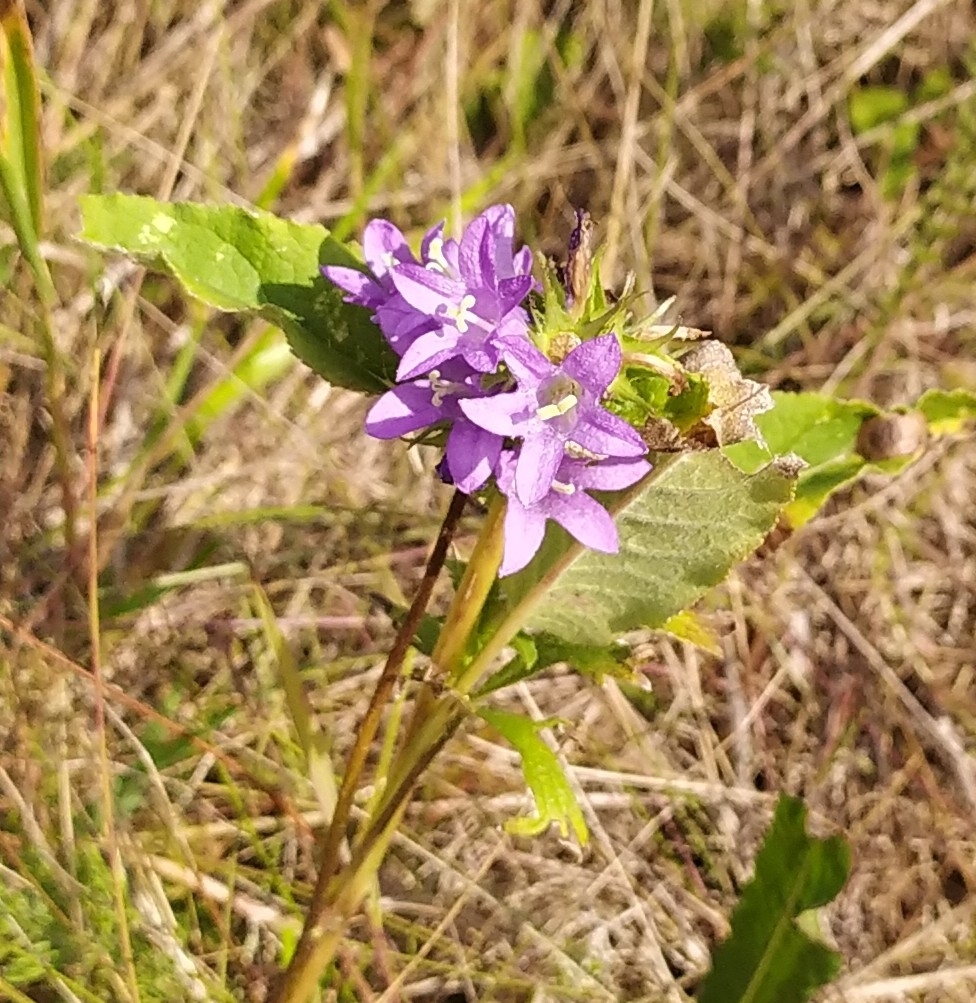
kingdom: Plantae
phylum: Tracheophyta
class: Magnoliopsida
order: Asterales
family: Campanulaceae
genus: Campanula
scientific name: Campanula glomerata
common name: Clustered bellflower
